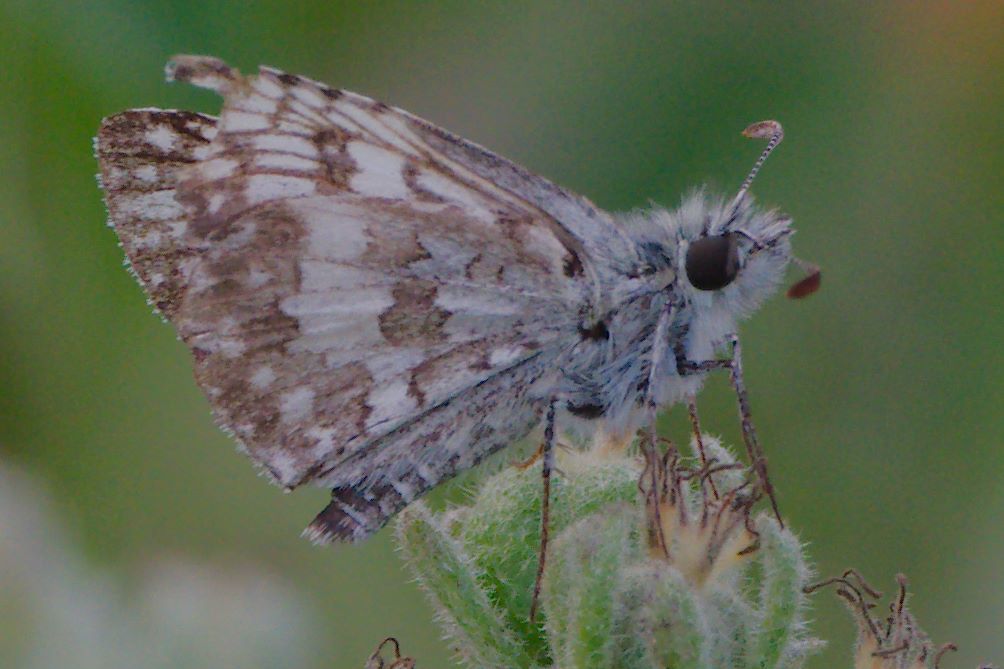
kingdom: Animalia
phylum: Arthropoda
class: Insecta
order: Lepidoptera
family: Hesperiidae
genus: Burnsius
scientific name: Burnsius
